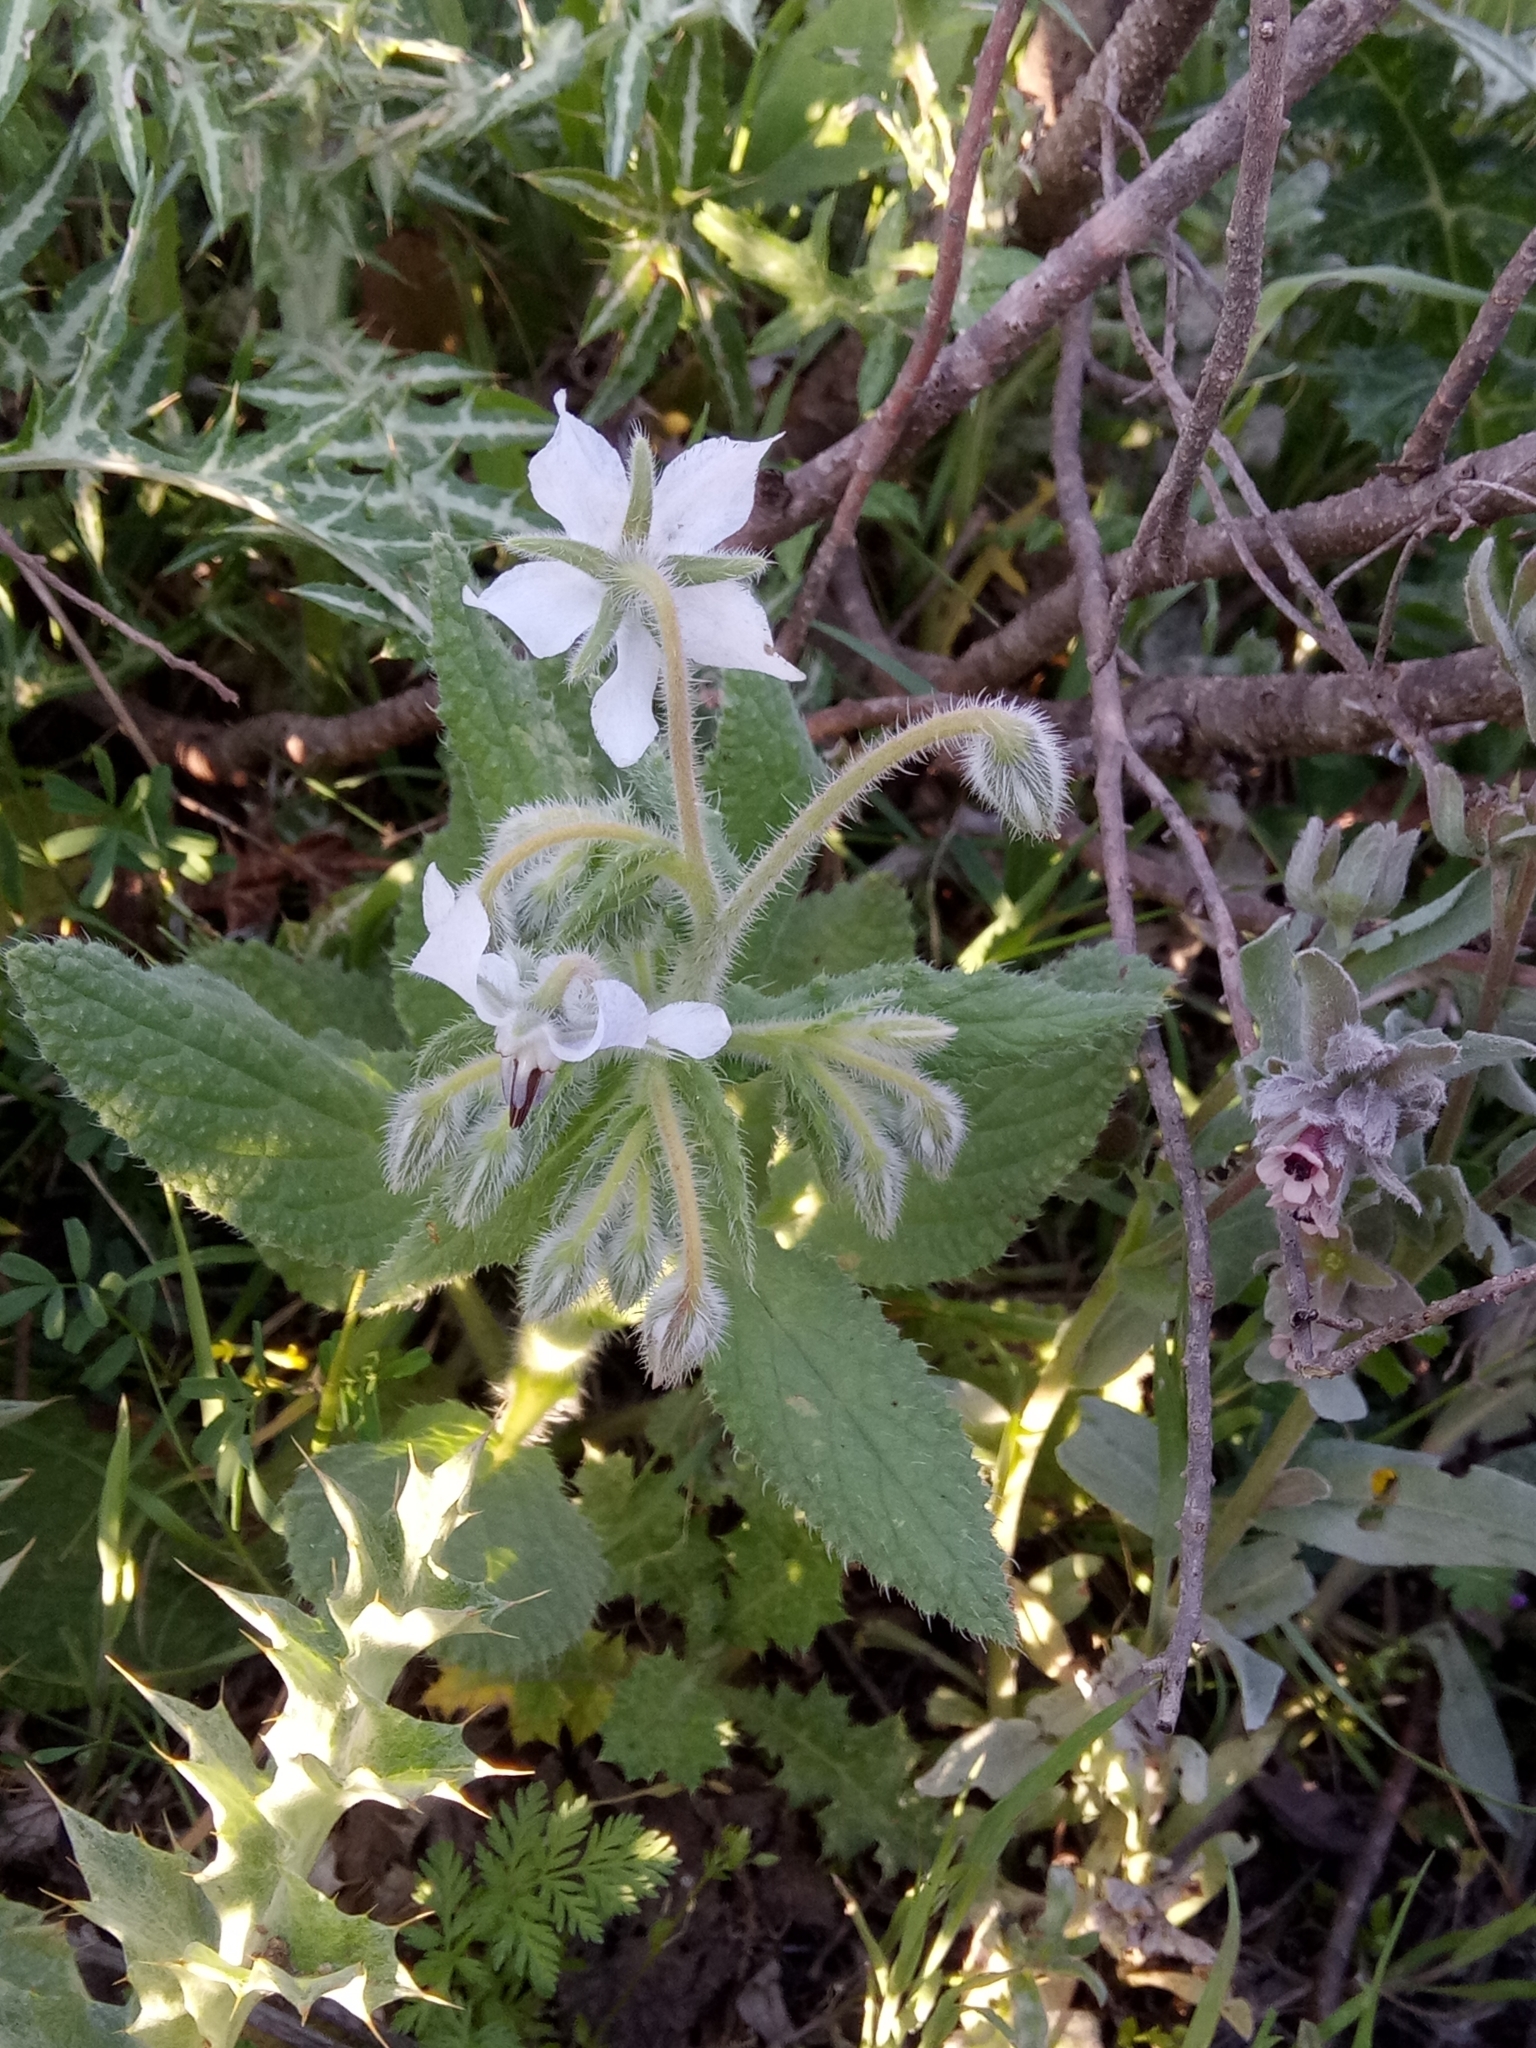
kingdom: Plantae
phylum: Tracheophyta
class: Magnoliopsida
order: Boraginales
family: Boraginaceae
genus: Borago
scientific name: Borago officinalis
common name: Borage
